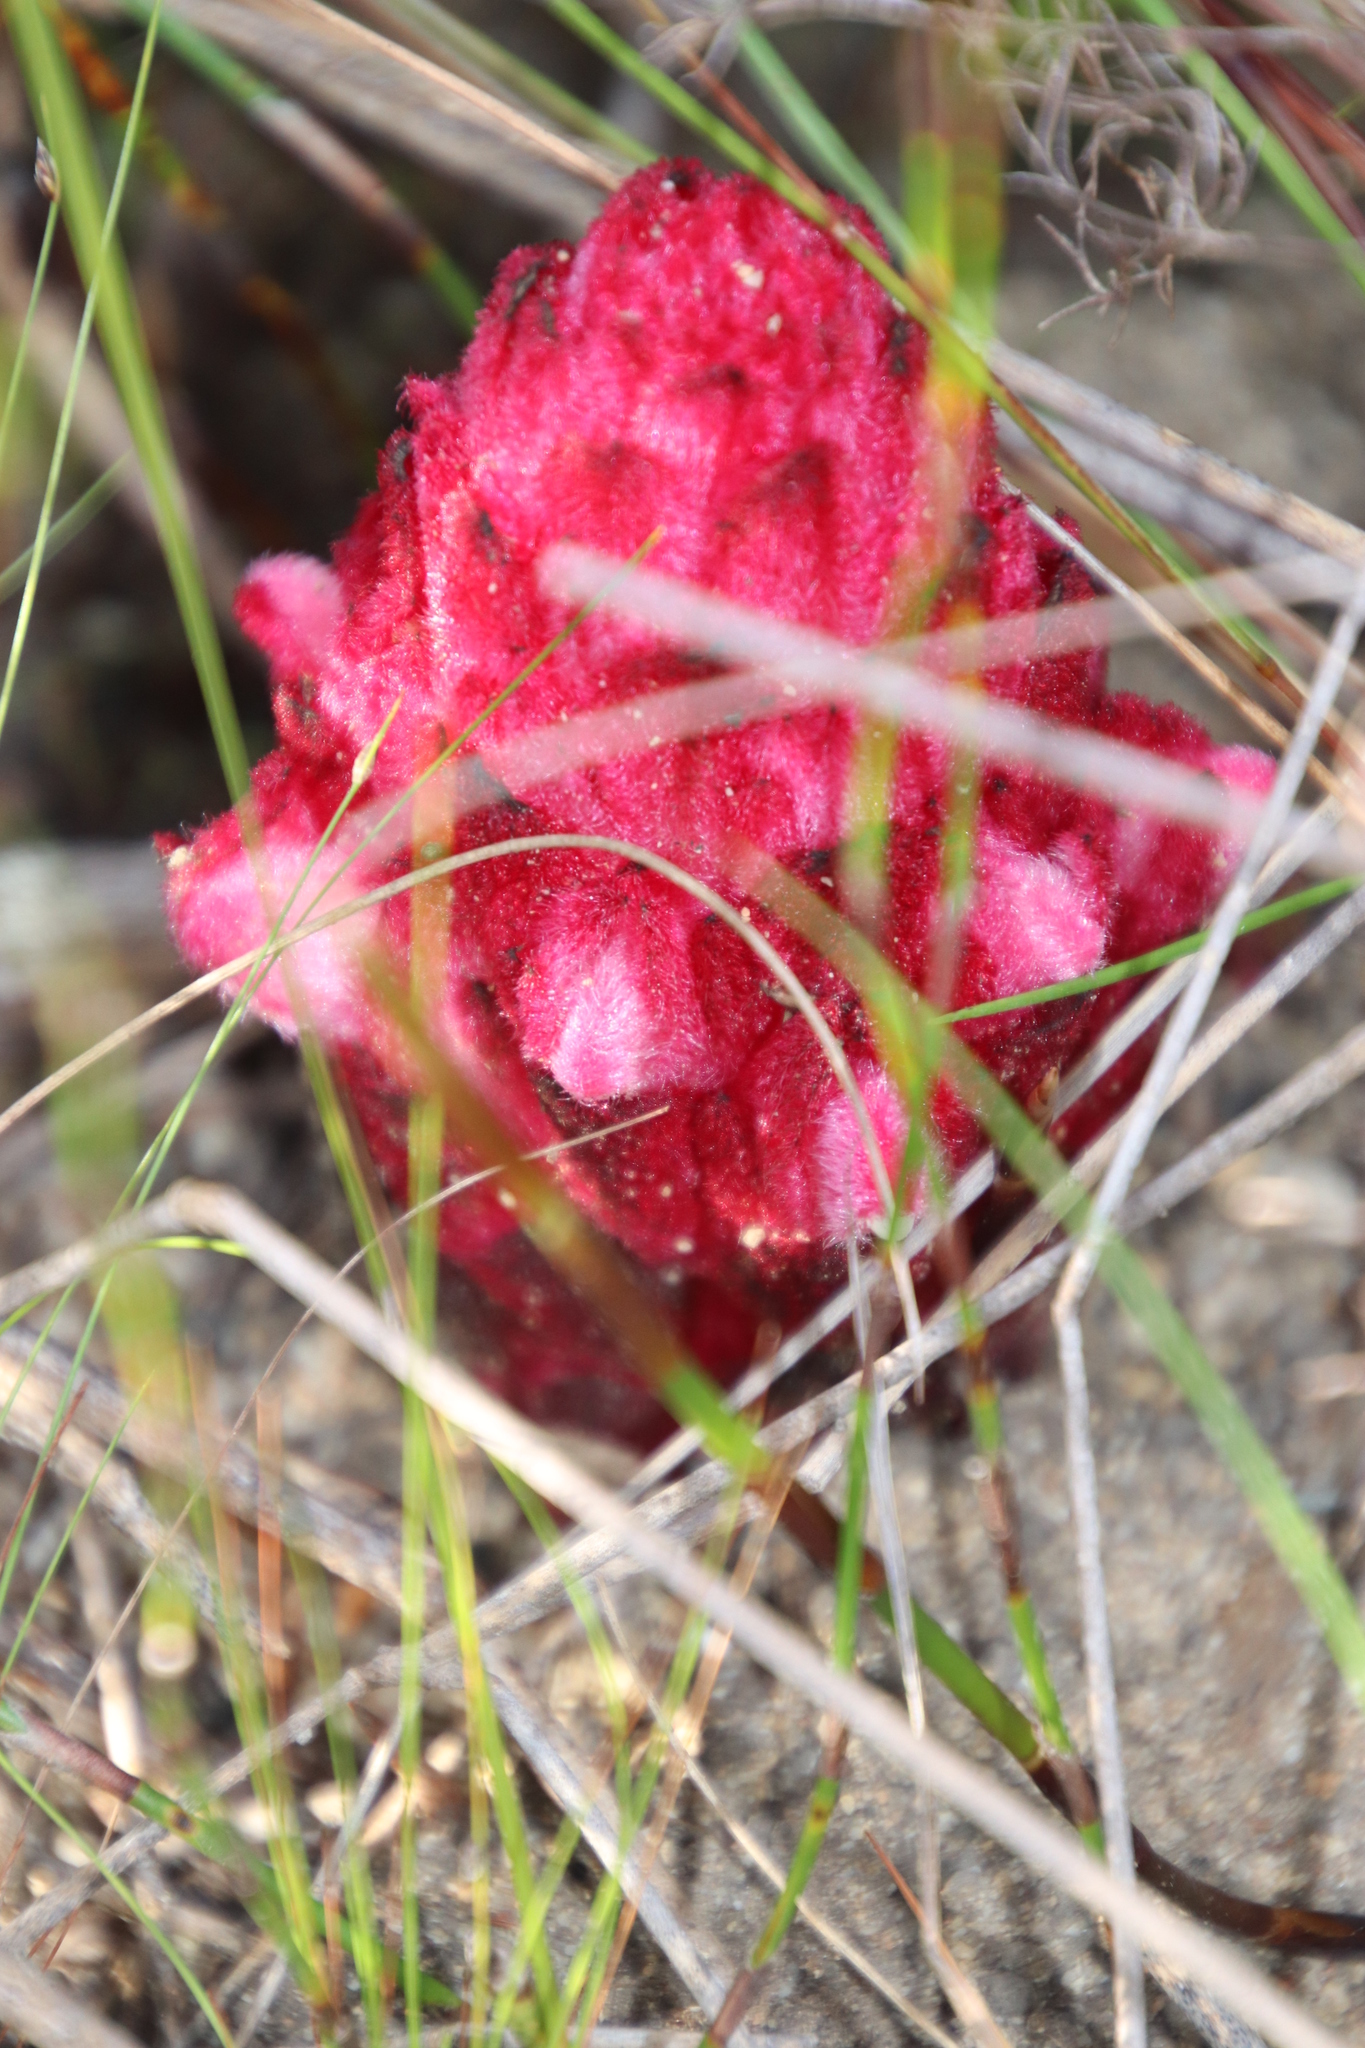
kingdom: Plantae
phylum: Tracheophyta
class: Magnoliopsida
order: Lamiales
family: Orobanchaceae
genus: Hyobanche
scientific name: Hyobanche sanguinea
